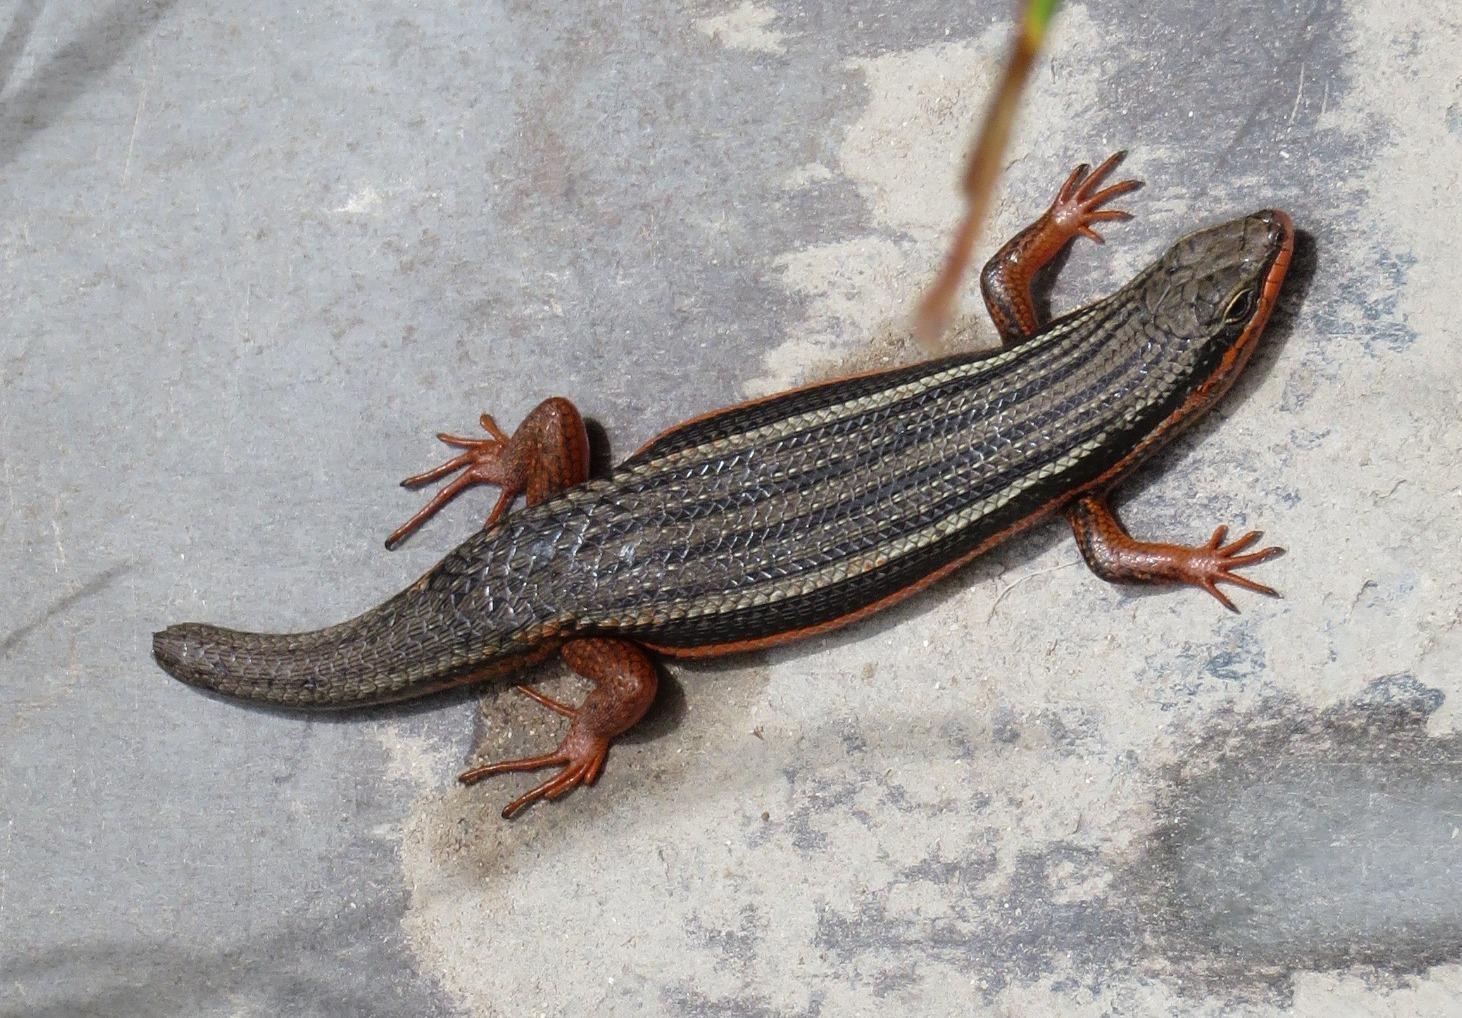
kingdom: Animalia
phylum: Chordata
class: Squamata
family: Scincidae
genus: Trachylepis
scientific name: Trachylepis homalocephala
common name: Red-sided skink
